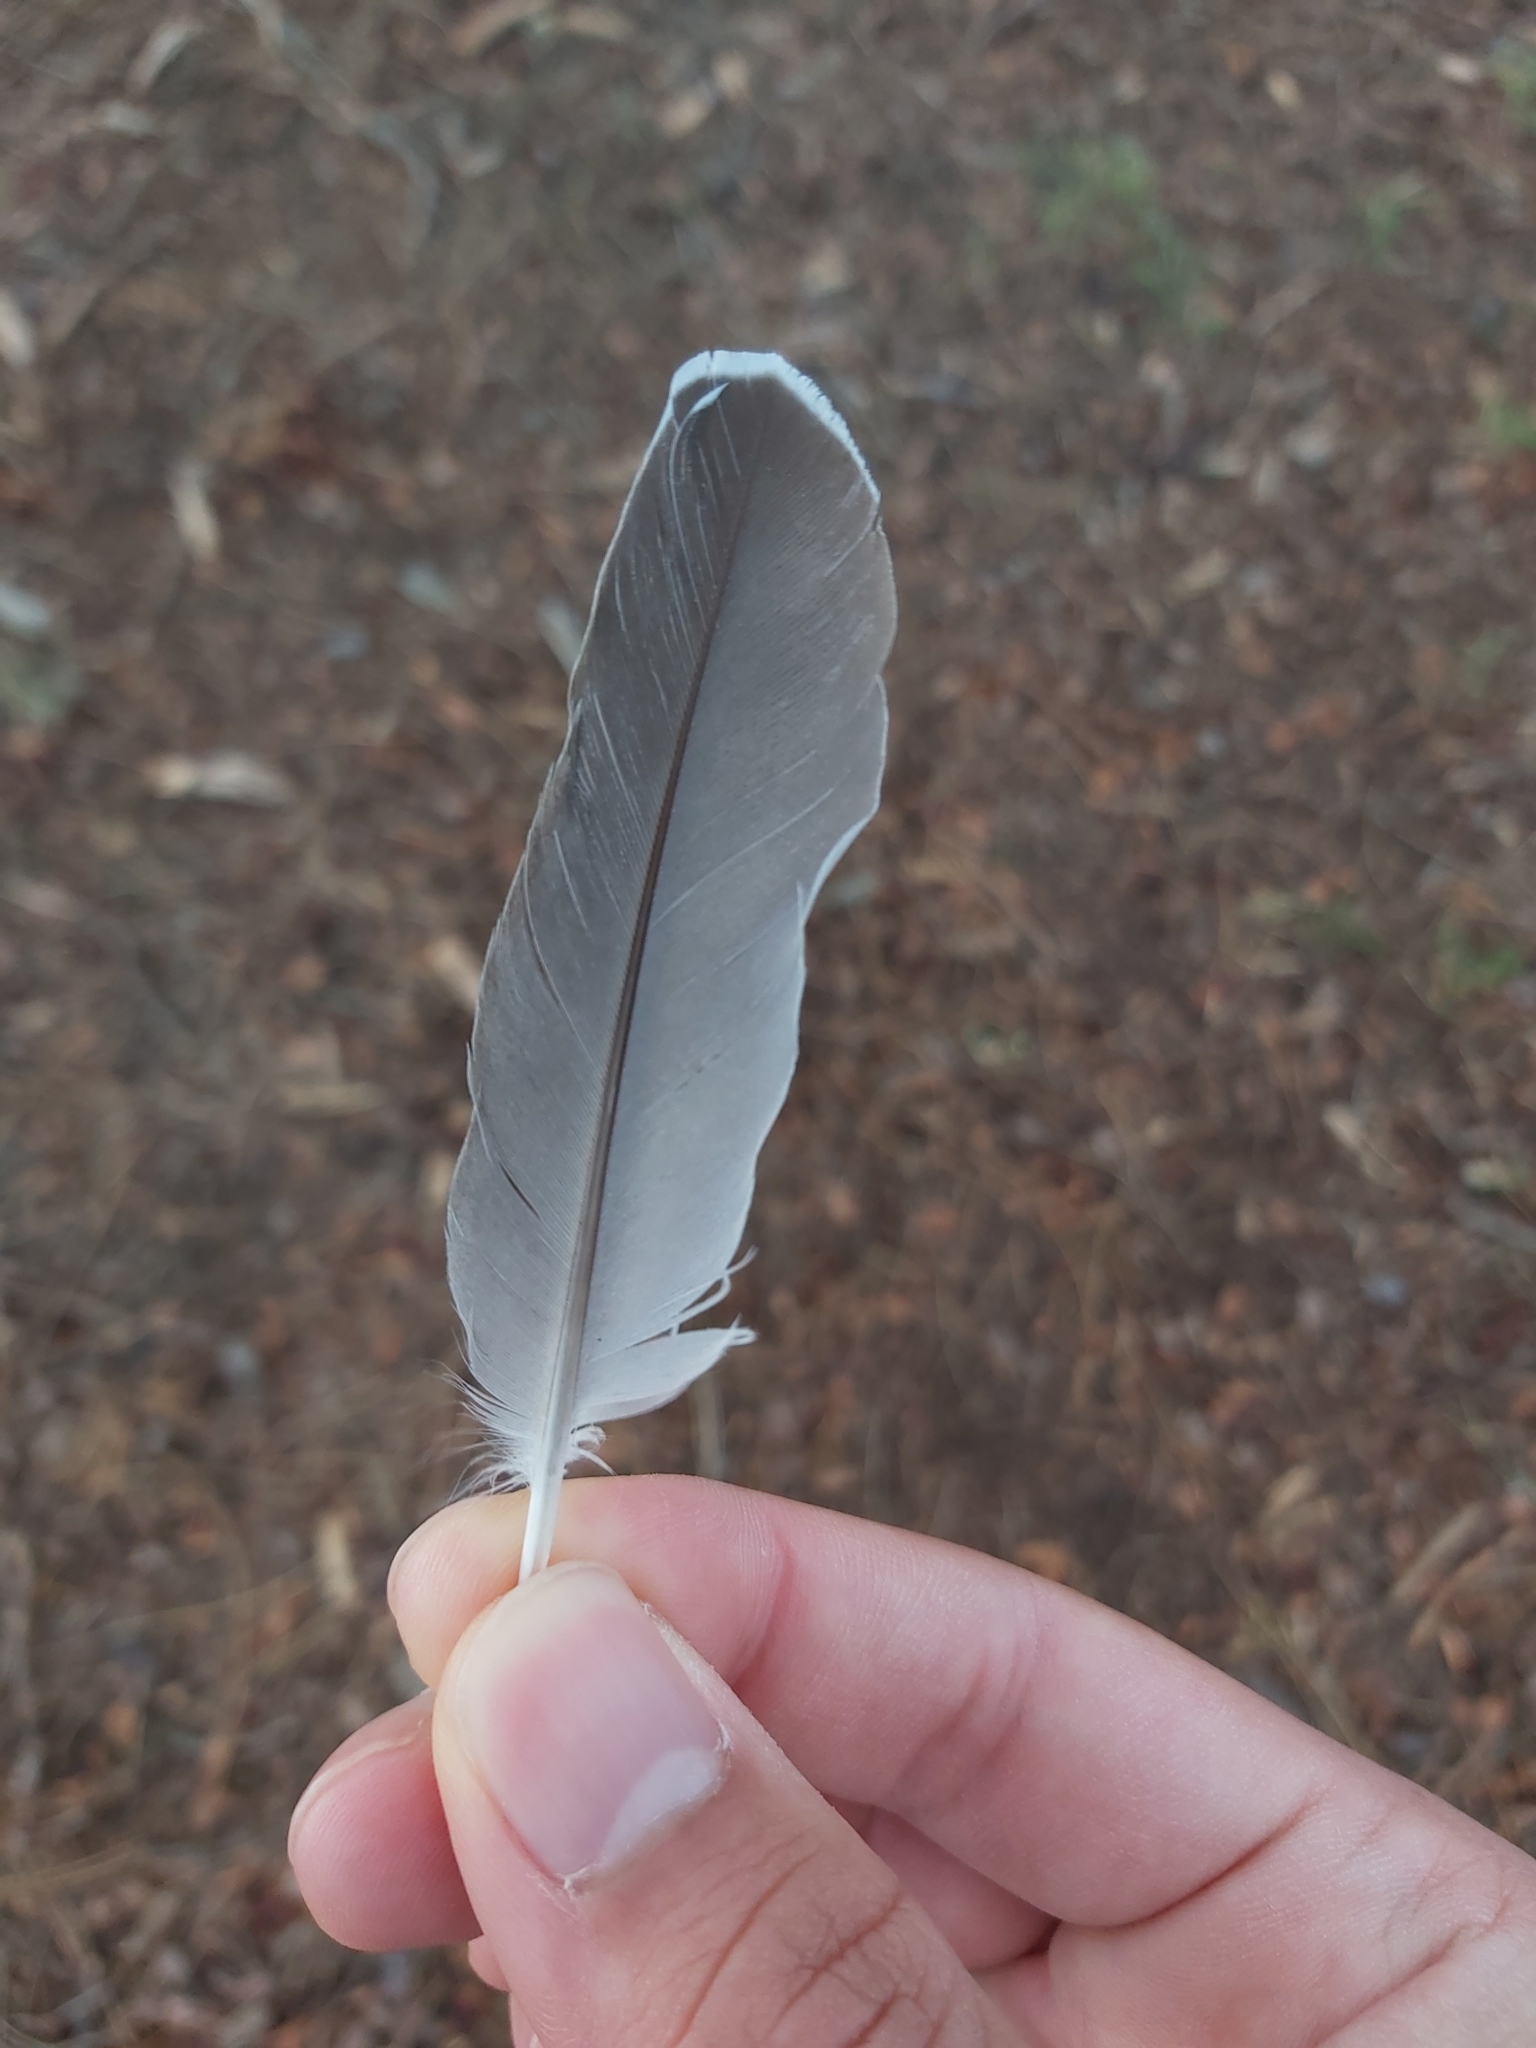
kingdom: Animalia
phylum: Chordata
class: Aves
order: Columbiformes
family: Columbidae
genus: Ocyphaps
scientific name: Ocyphaps lophotes
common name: Crested pigeon
